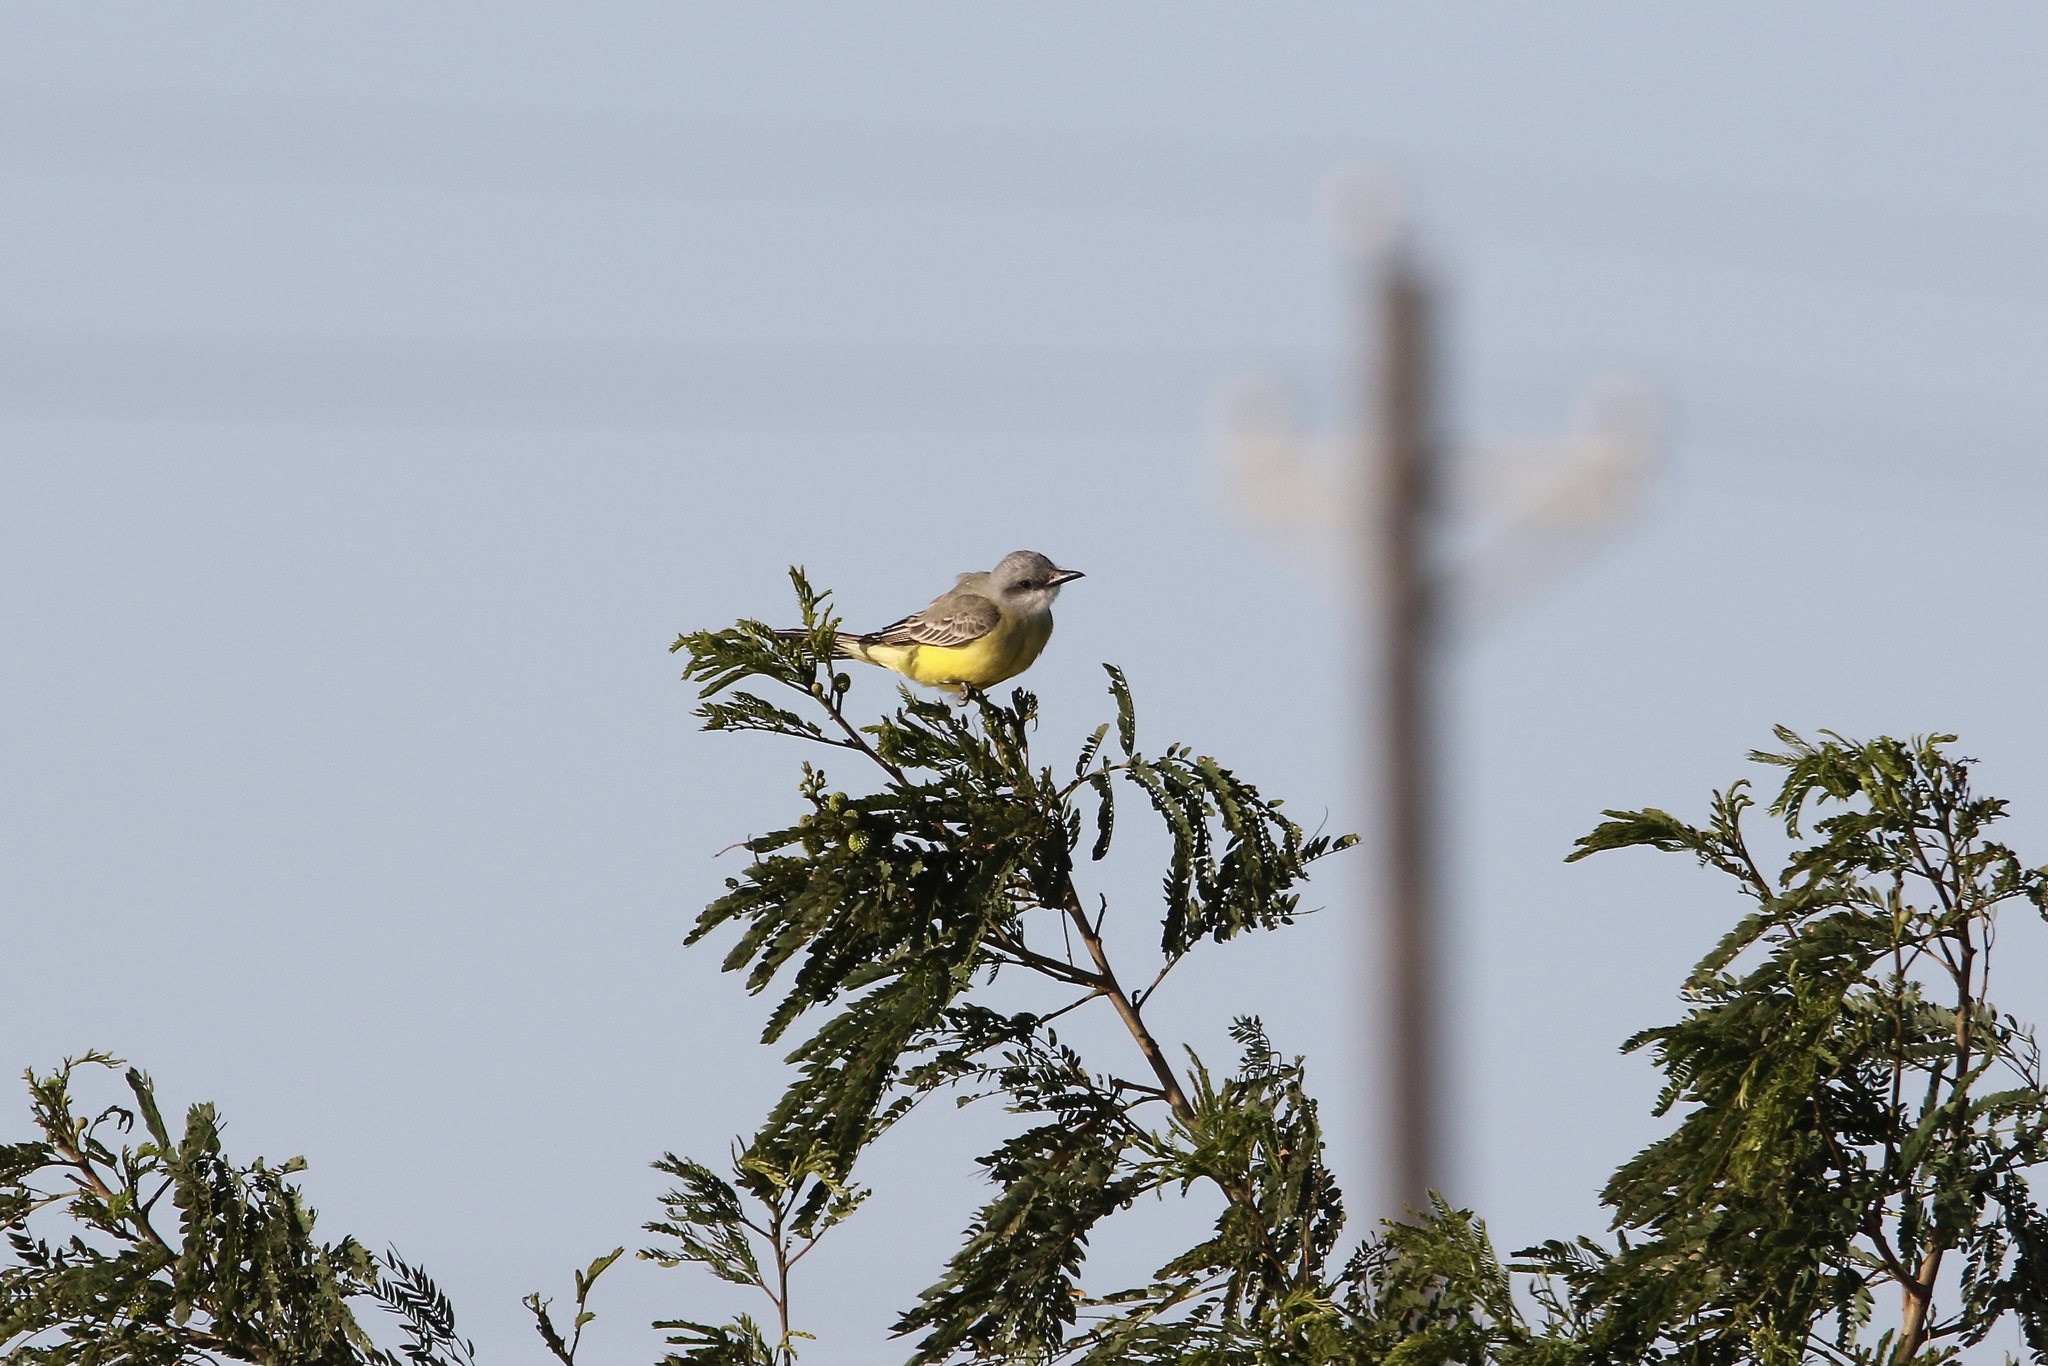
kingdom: Animalia
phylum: Chordata
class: Aves
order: Passeriformes
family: Tyrannidae
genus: Tyrannus
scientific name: Tyrannus melancholicus
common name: Tropical kingbird
